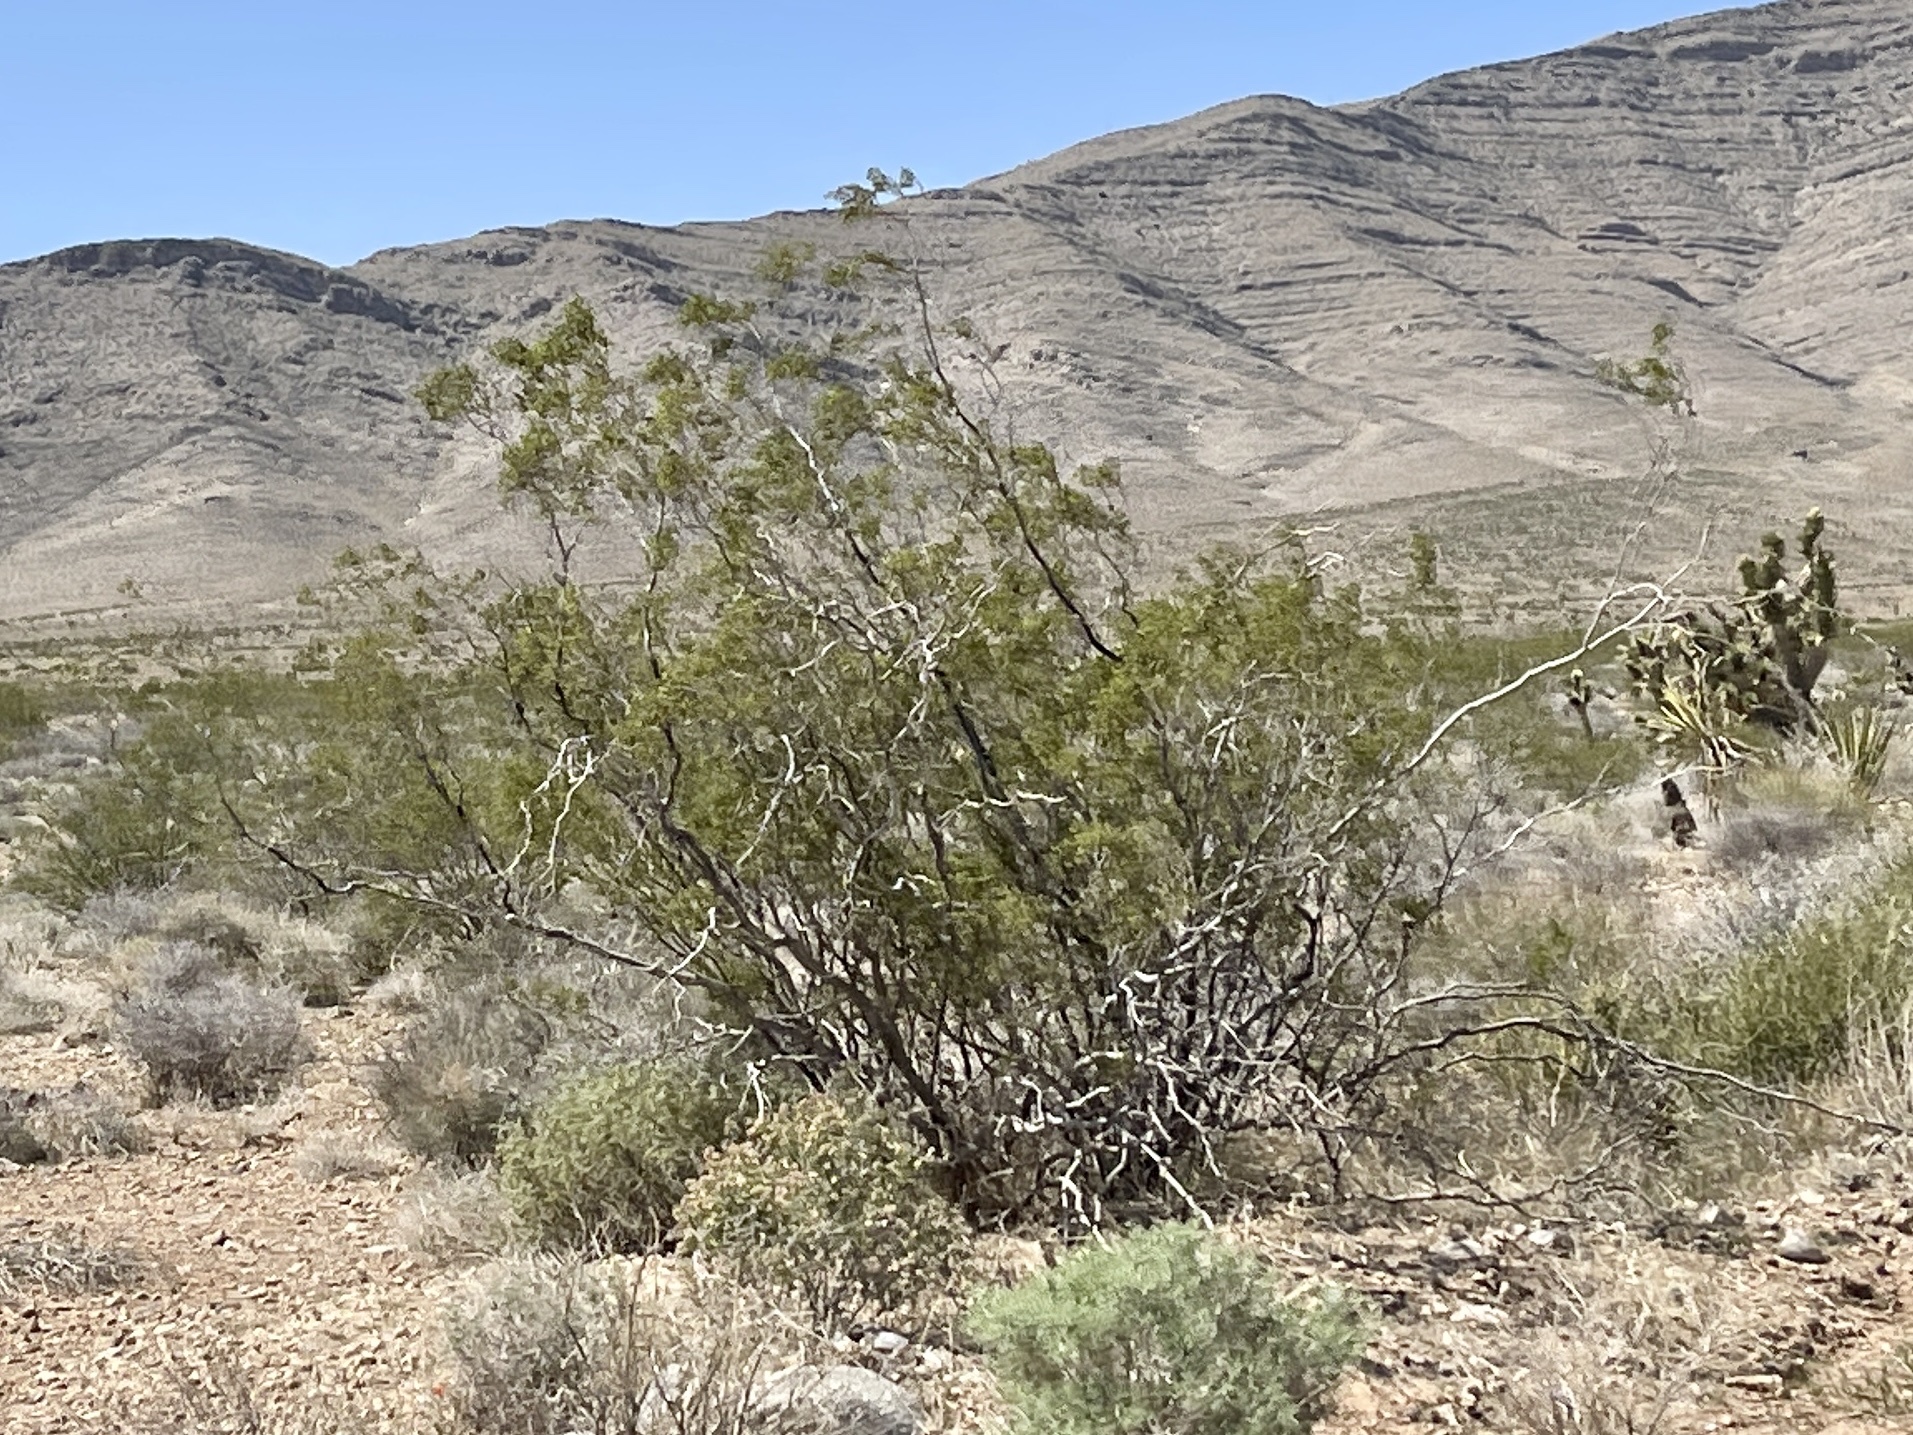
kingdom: Plantae
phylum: Tracheophyta
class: Magnoliopsida
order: Zygophyllales
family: Zygophyllaceae
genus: Larrea
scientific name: Larrea tridentata
